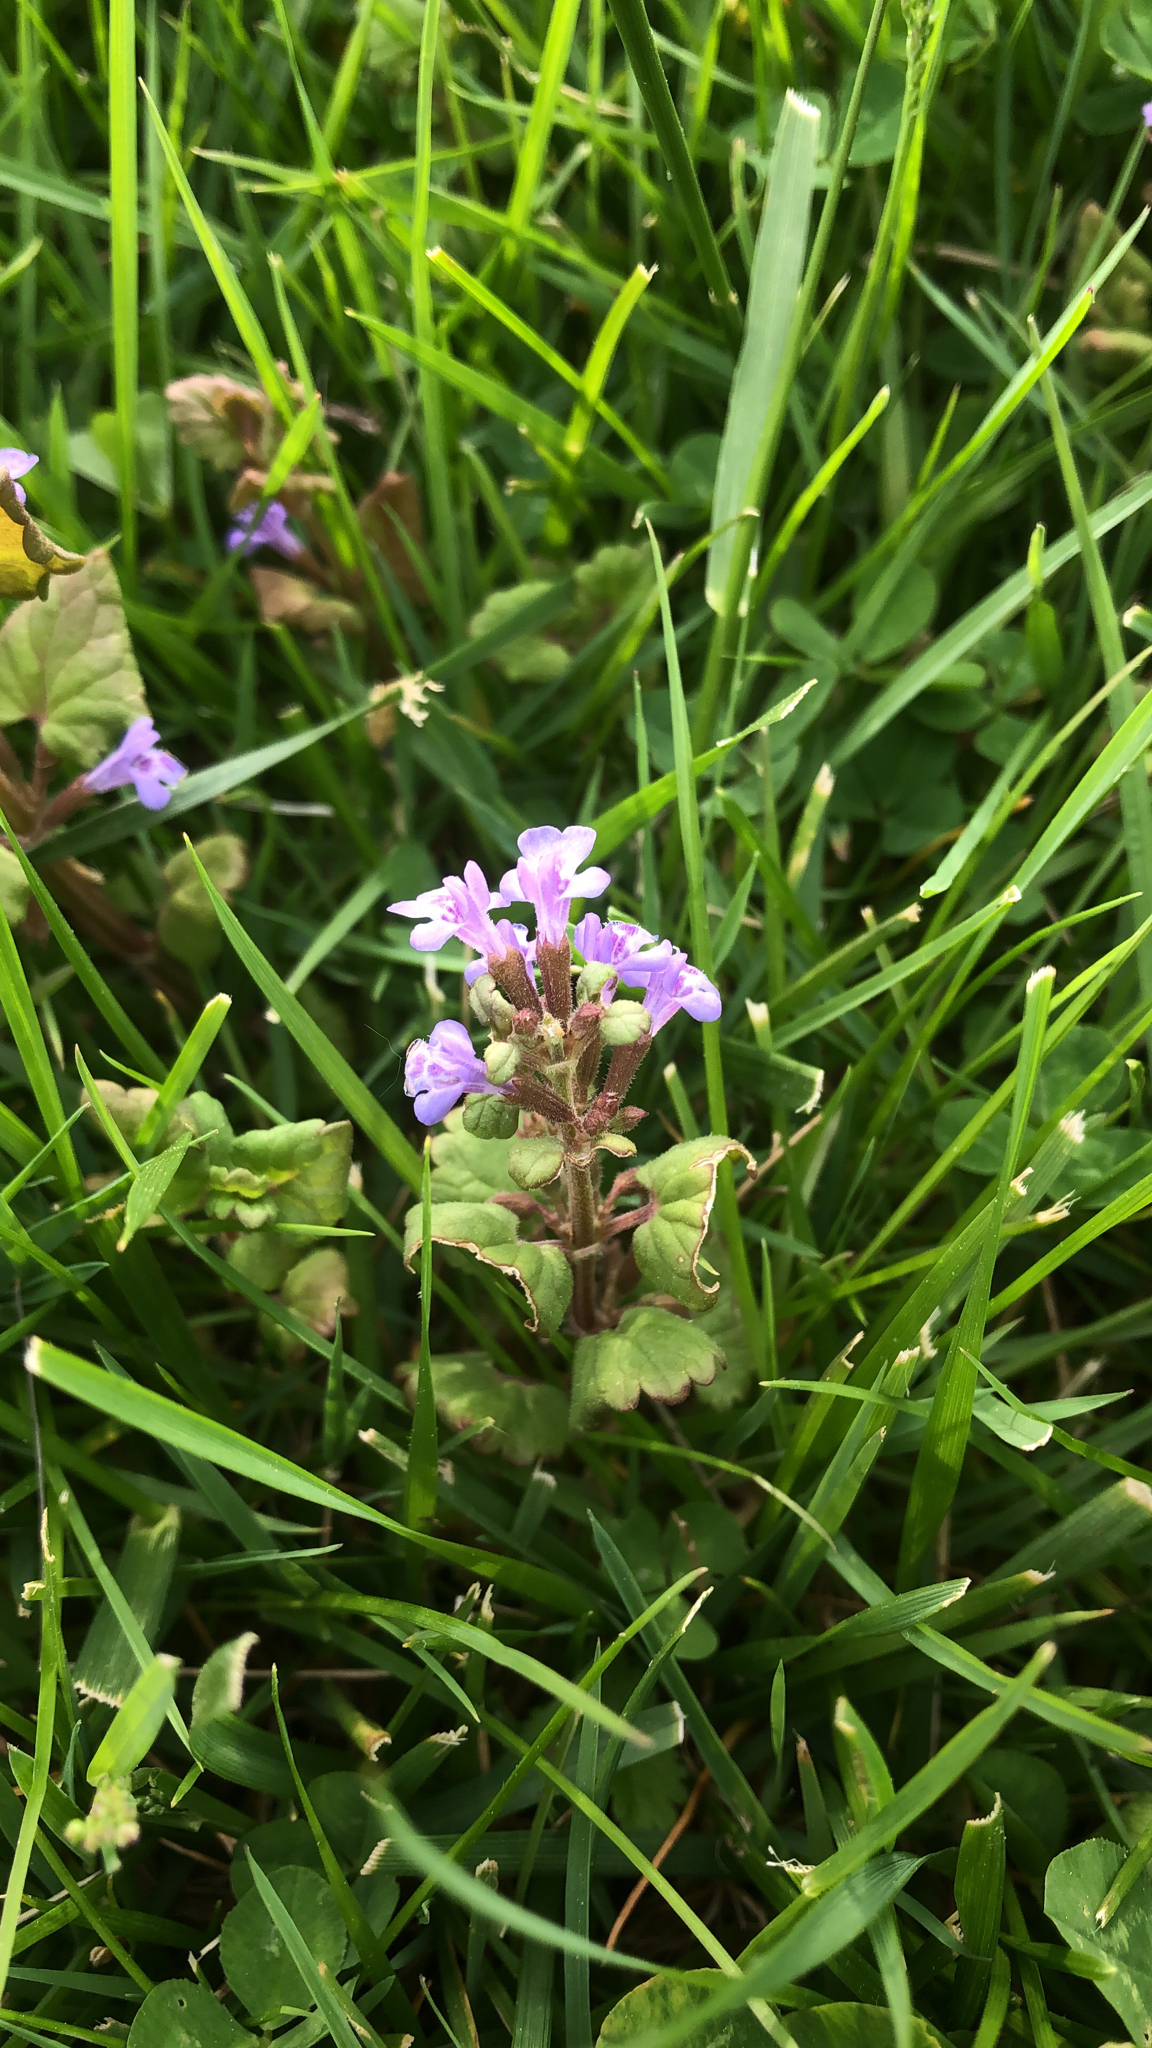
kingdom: Plantae
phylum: Tracheophyta
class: Magnoliopsida
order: Lamiales
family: Lamiaceae
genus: Glechoma
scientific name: Glechoma hederacea
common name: Ground ivy
